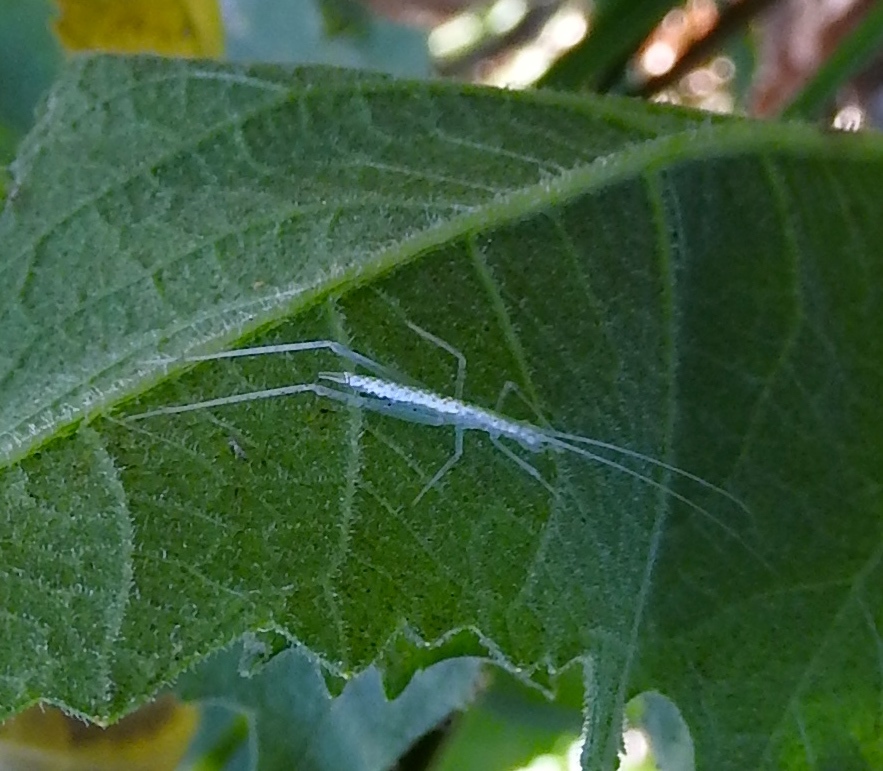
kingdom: Animalia
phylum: Arthropoda
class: Insecta
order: Orthoptera
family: Gryllidae
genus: Oecanthus
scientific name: Oecanthus
